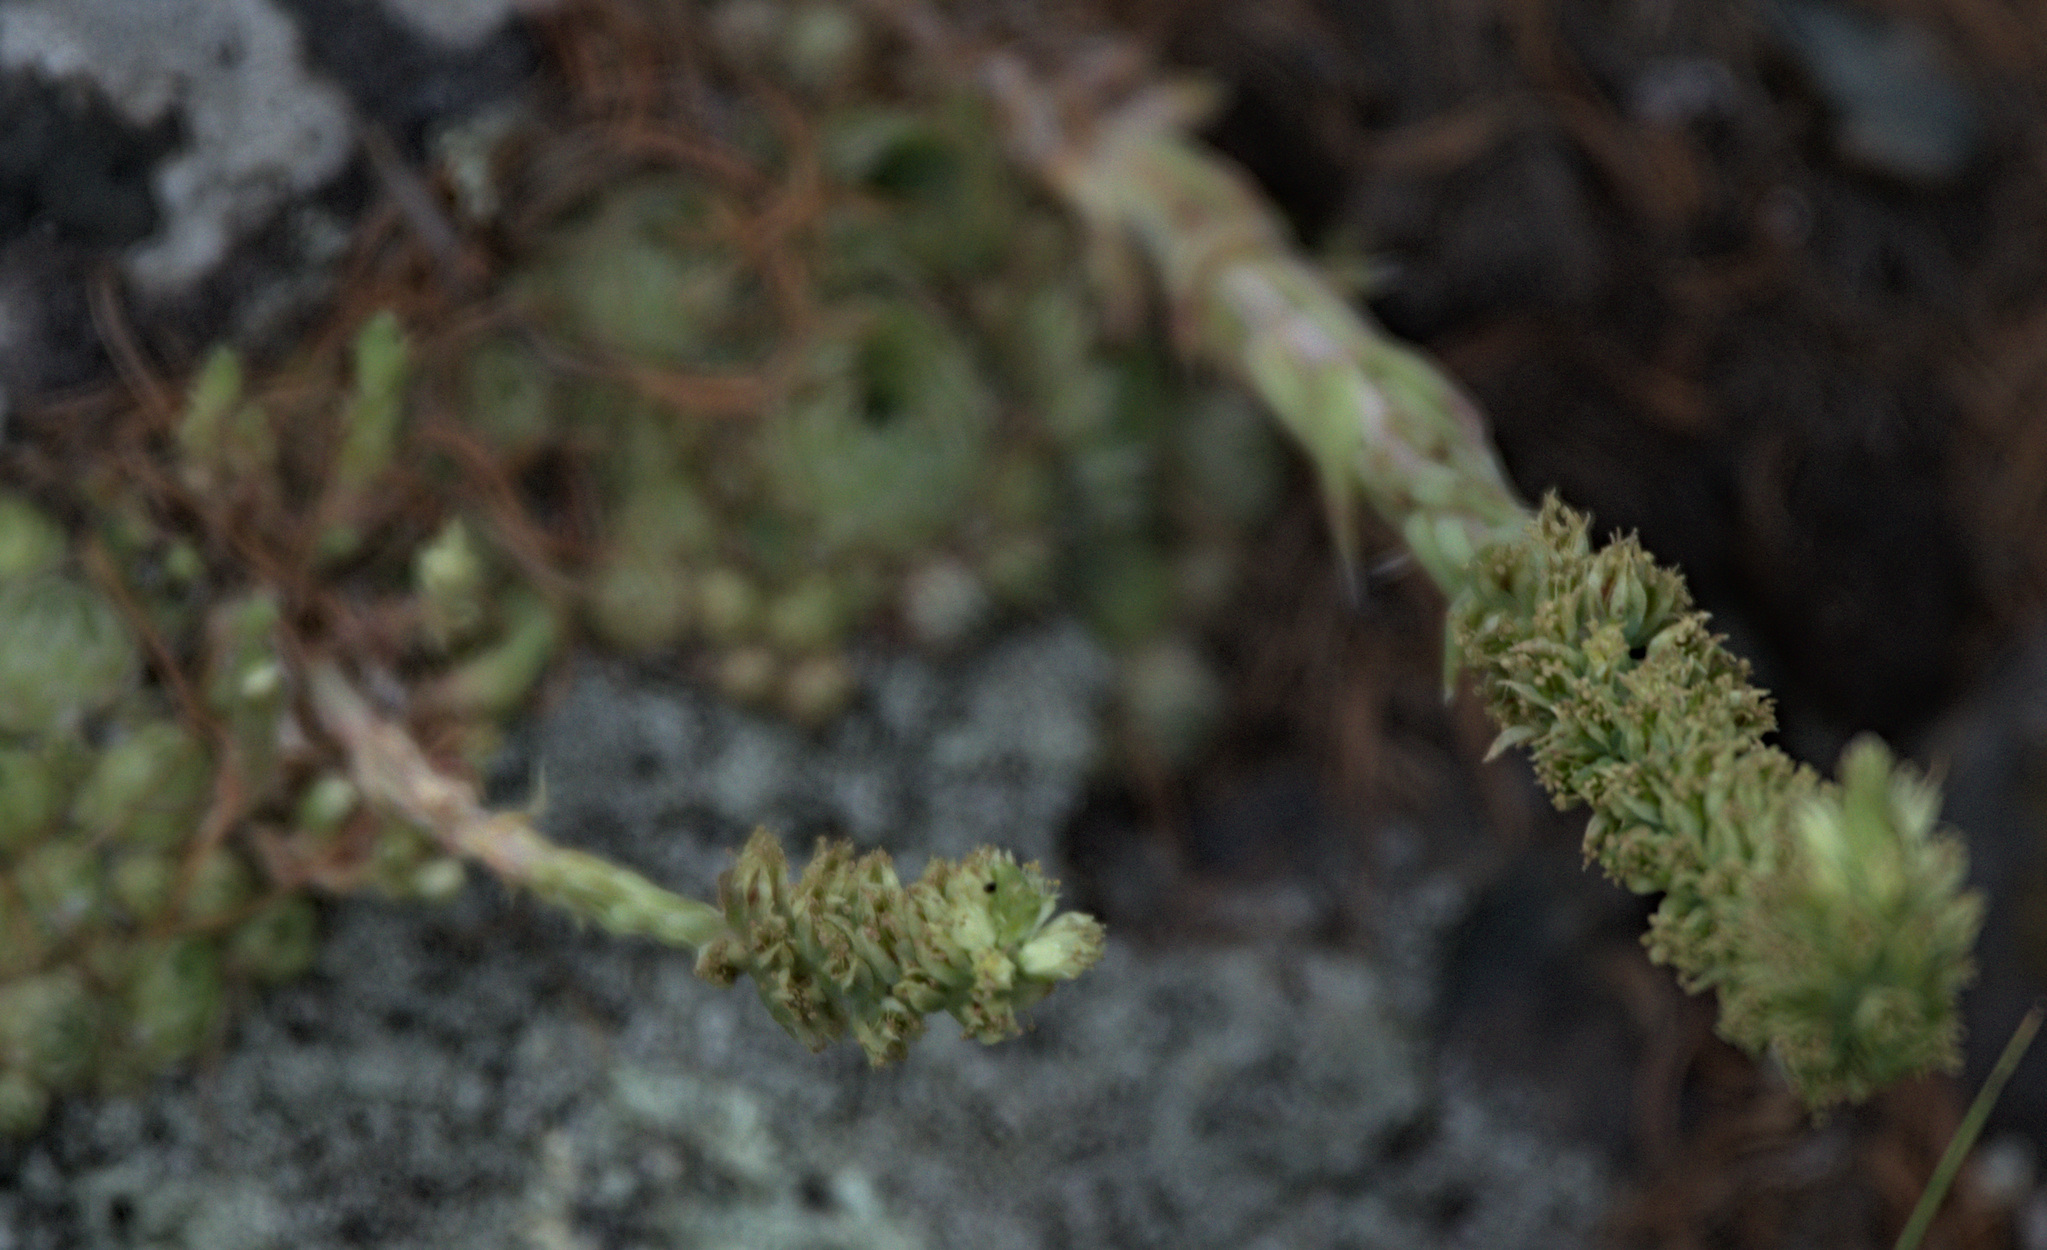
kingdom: Plantae
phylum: Tracheophyta
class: Magnoliopsida
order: Saxifragales
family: Crassulaceae
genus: Orostachys
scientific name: Orostachys spinosa
